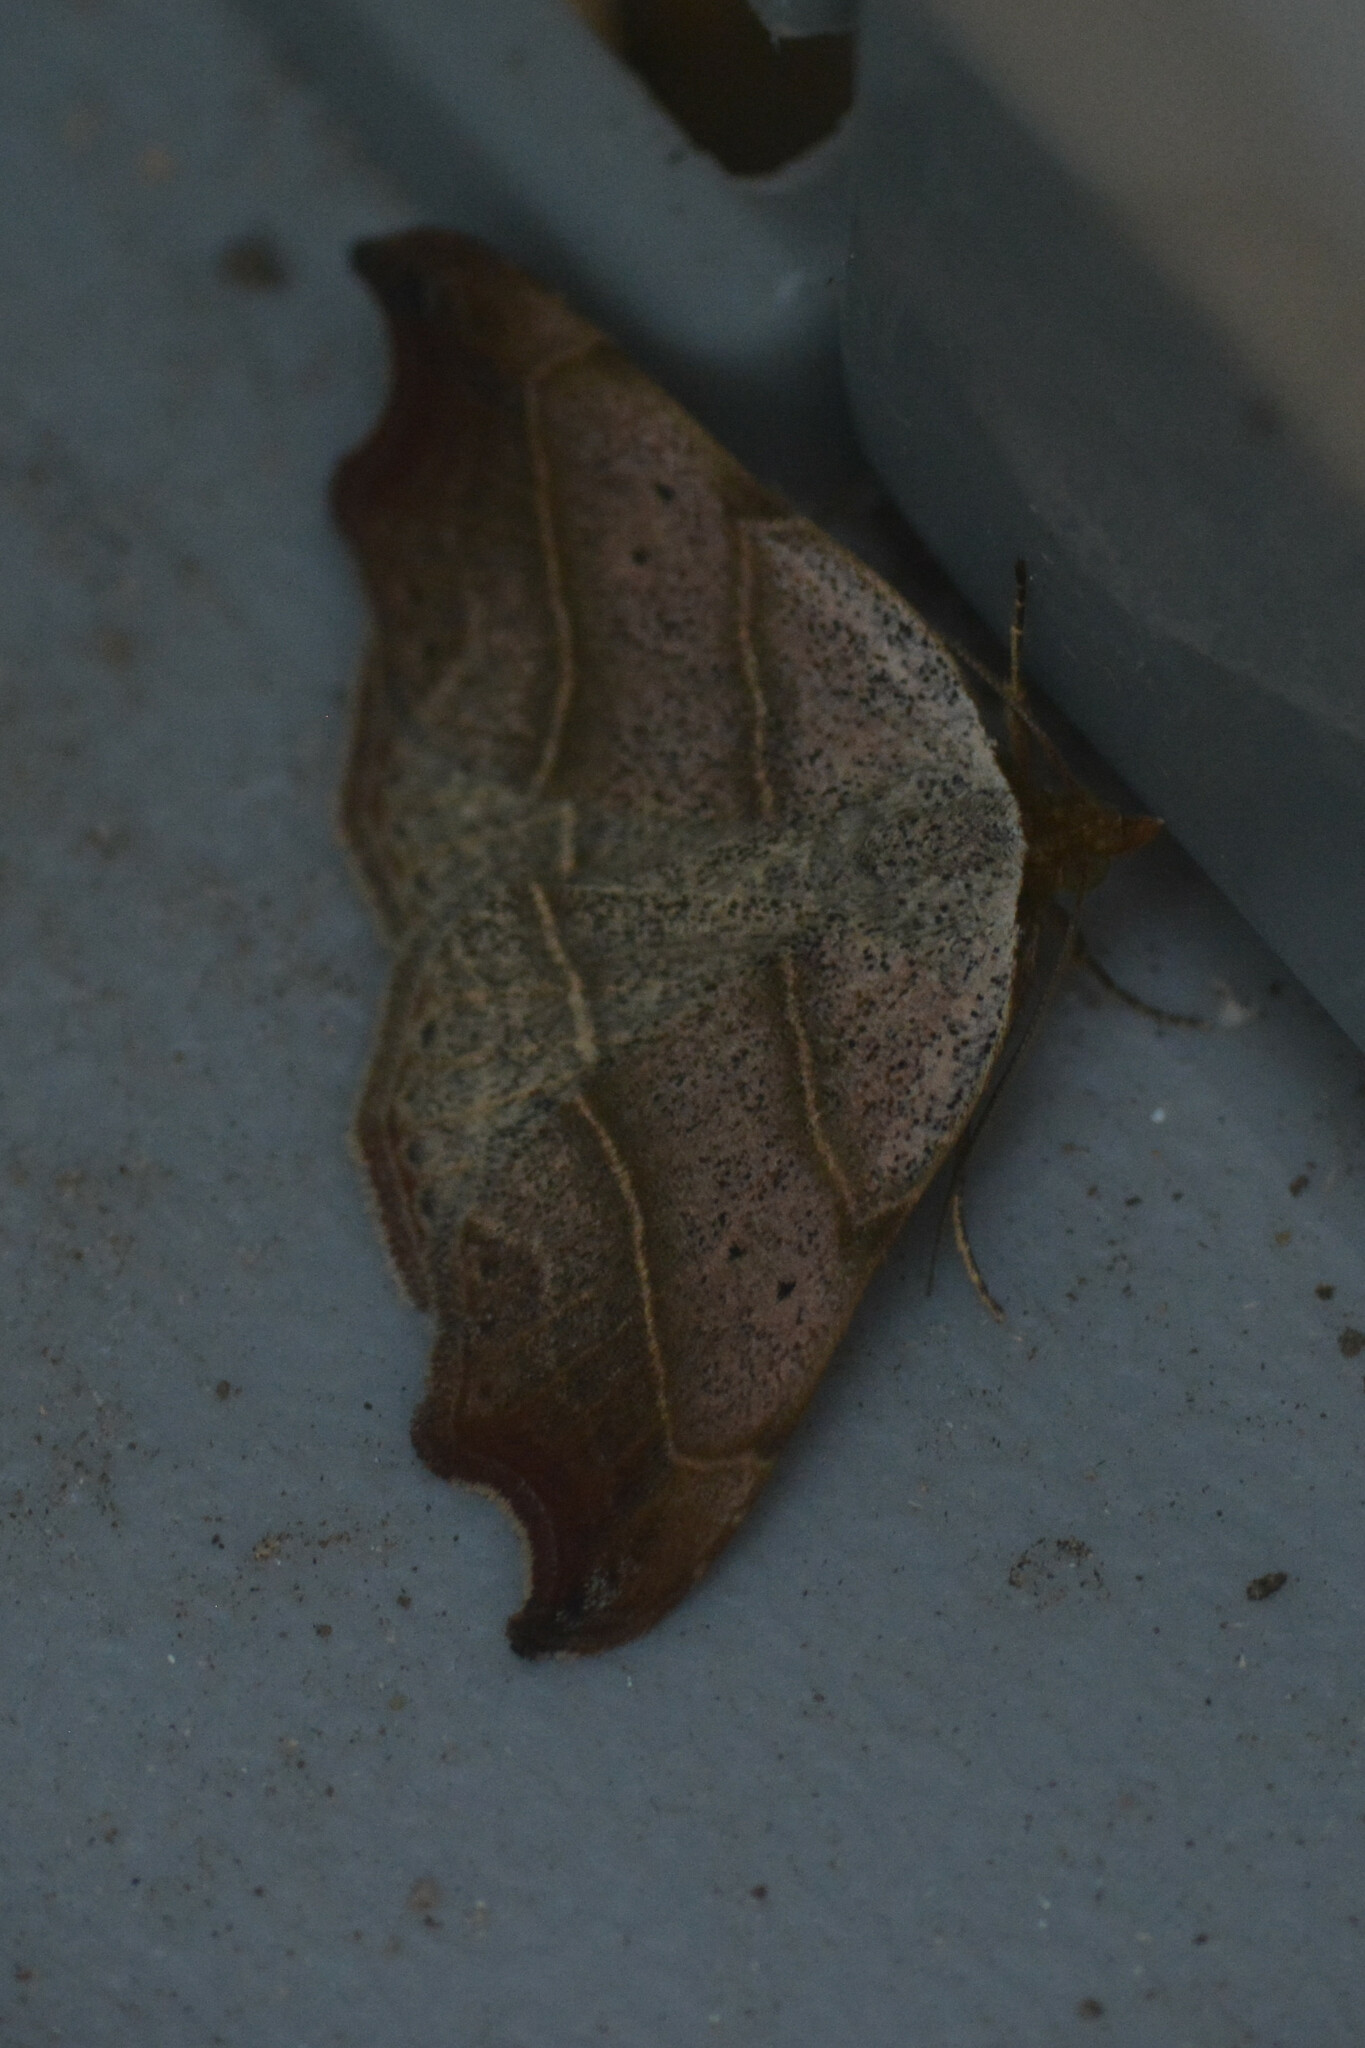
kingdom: Animalia
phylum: Arthropoda
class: Insecta
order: Lepidoptera
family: Erebidae
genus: Laspeyria
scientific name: Laspeyria flexula
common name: Beautiful hook-tip
